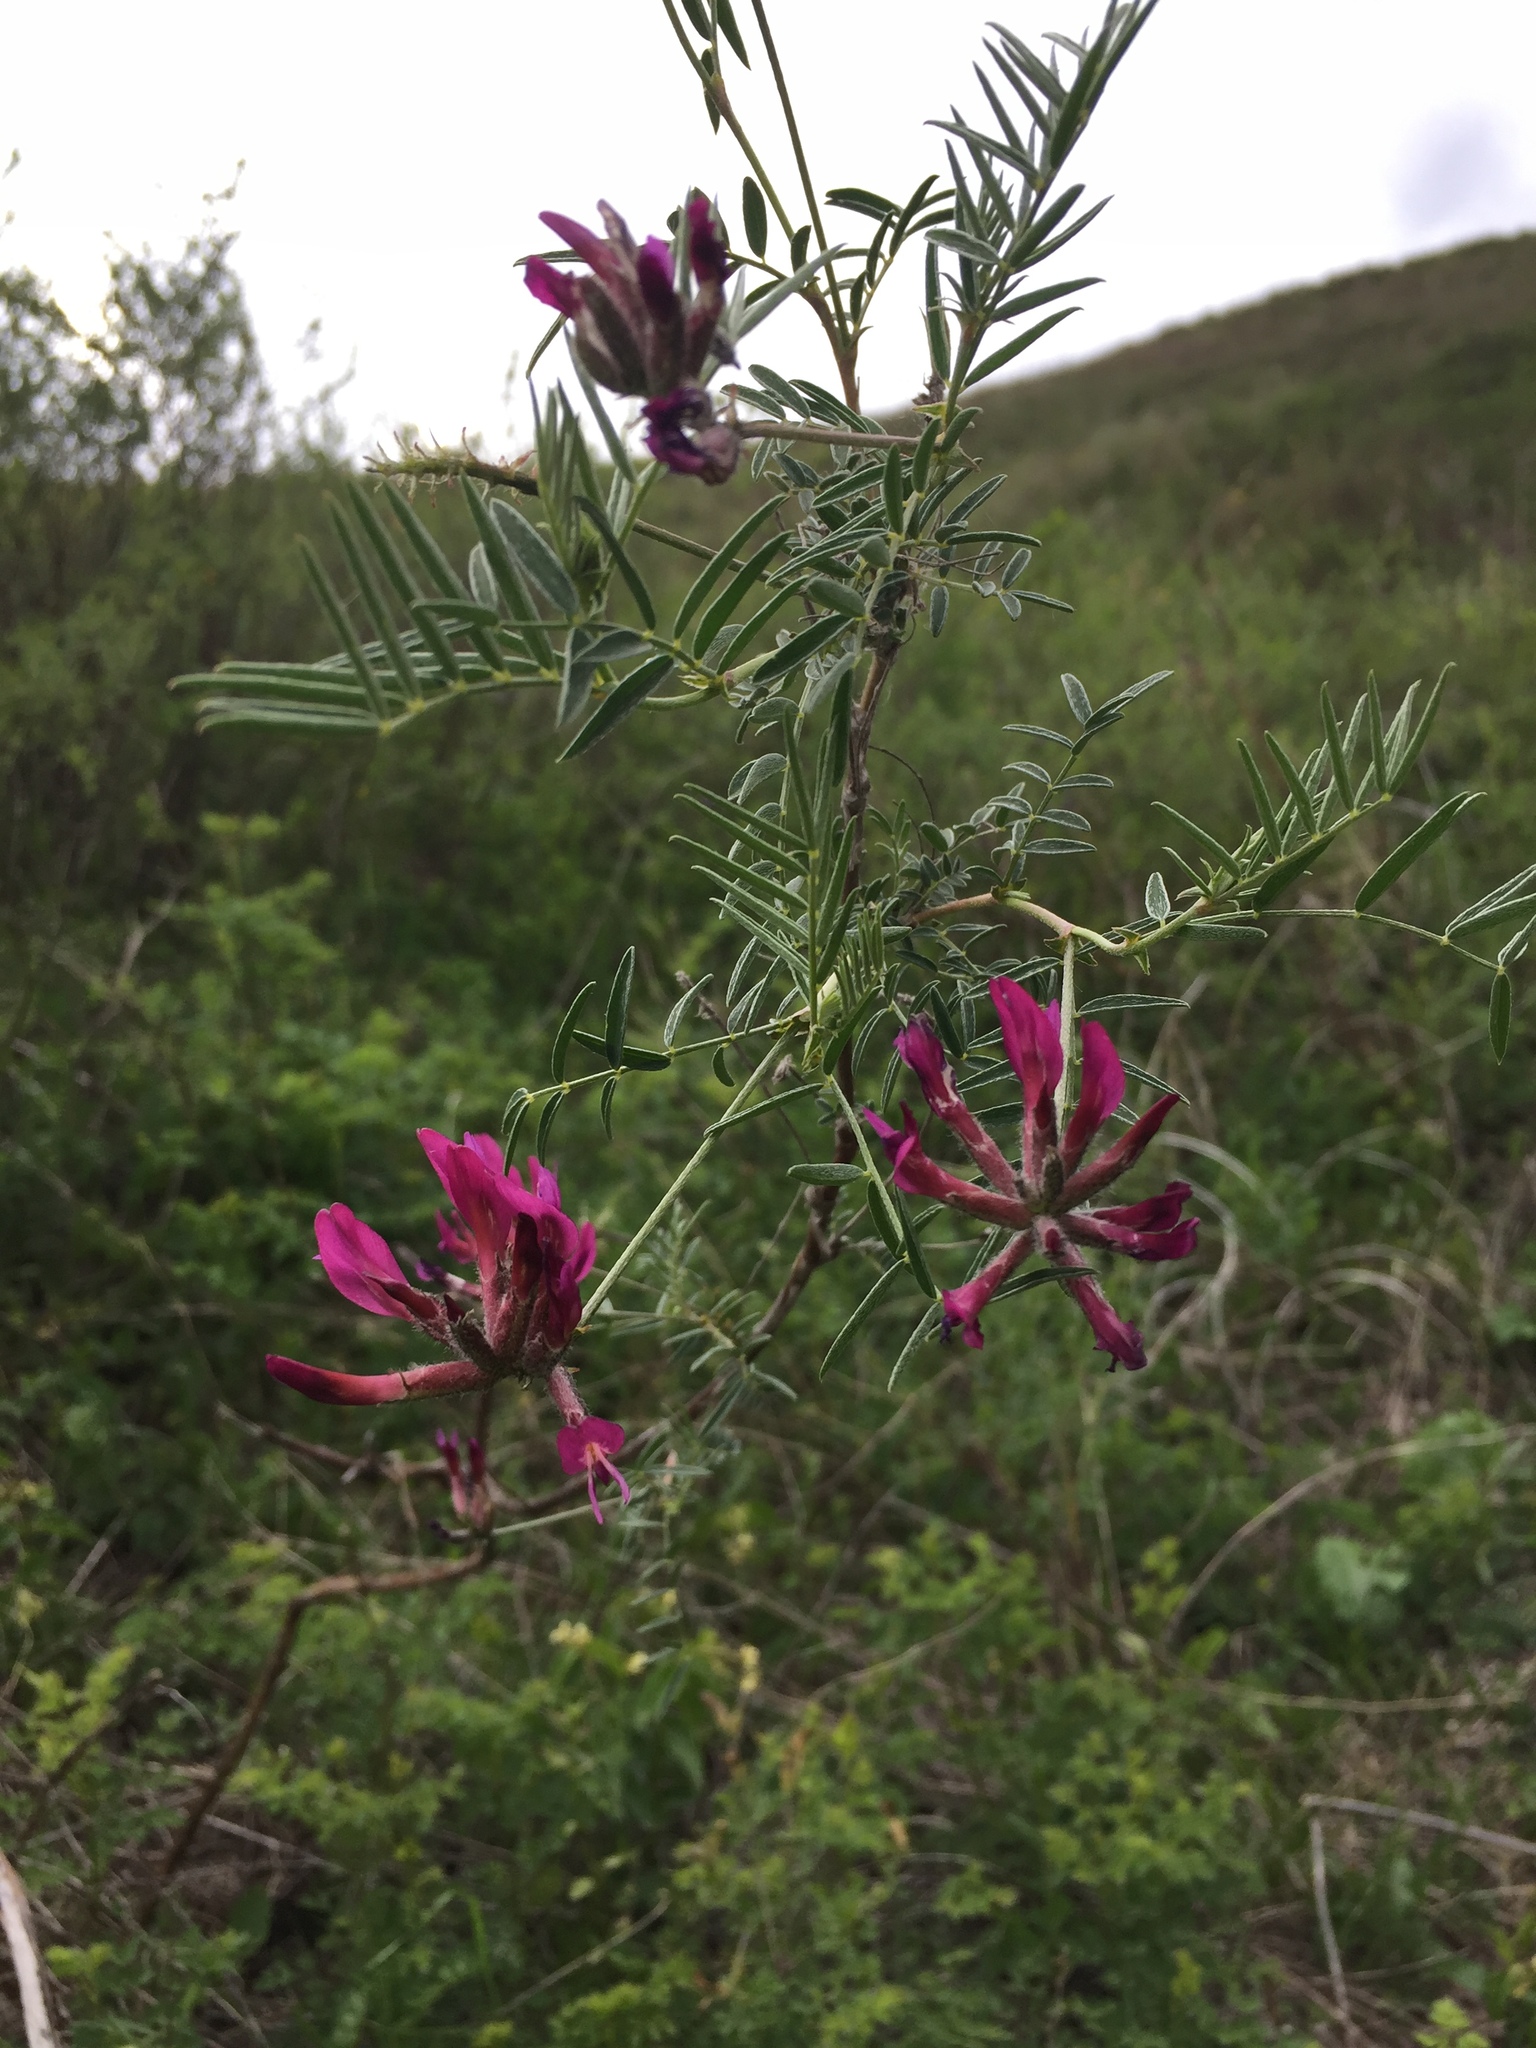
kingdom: Plantae
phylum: Tracheophyta
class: Magnoliopsida
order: Fabales
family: Fabaceae
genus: Astragalus
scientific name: Astragalus cornutus
